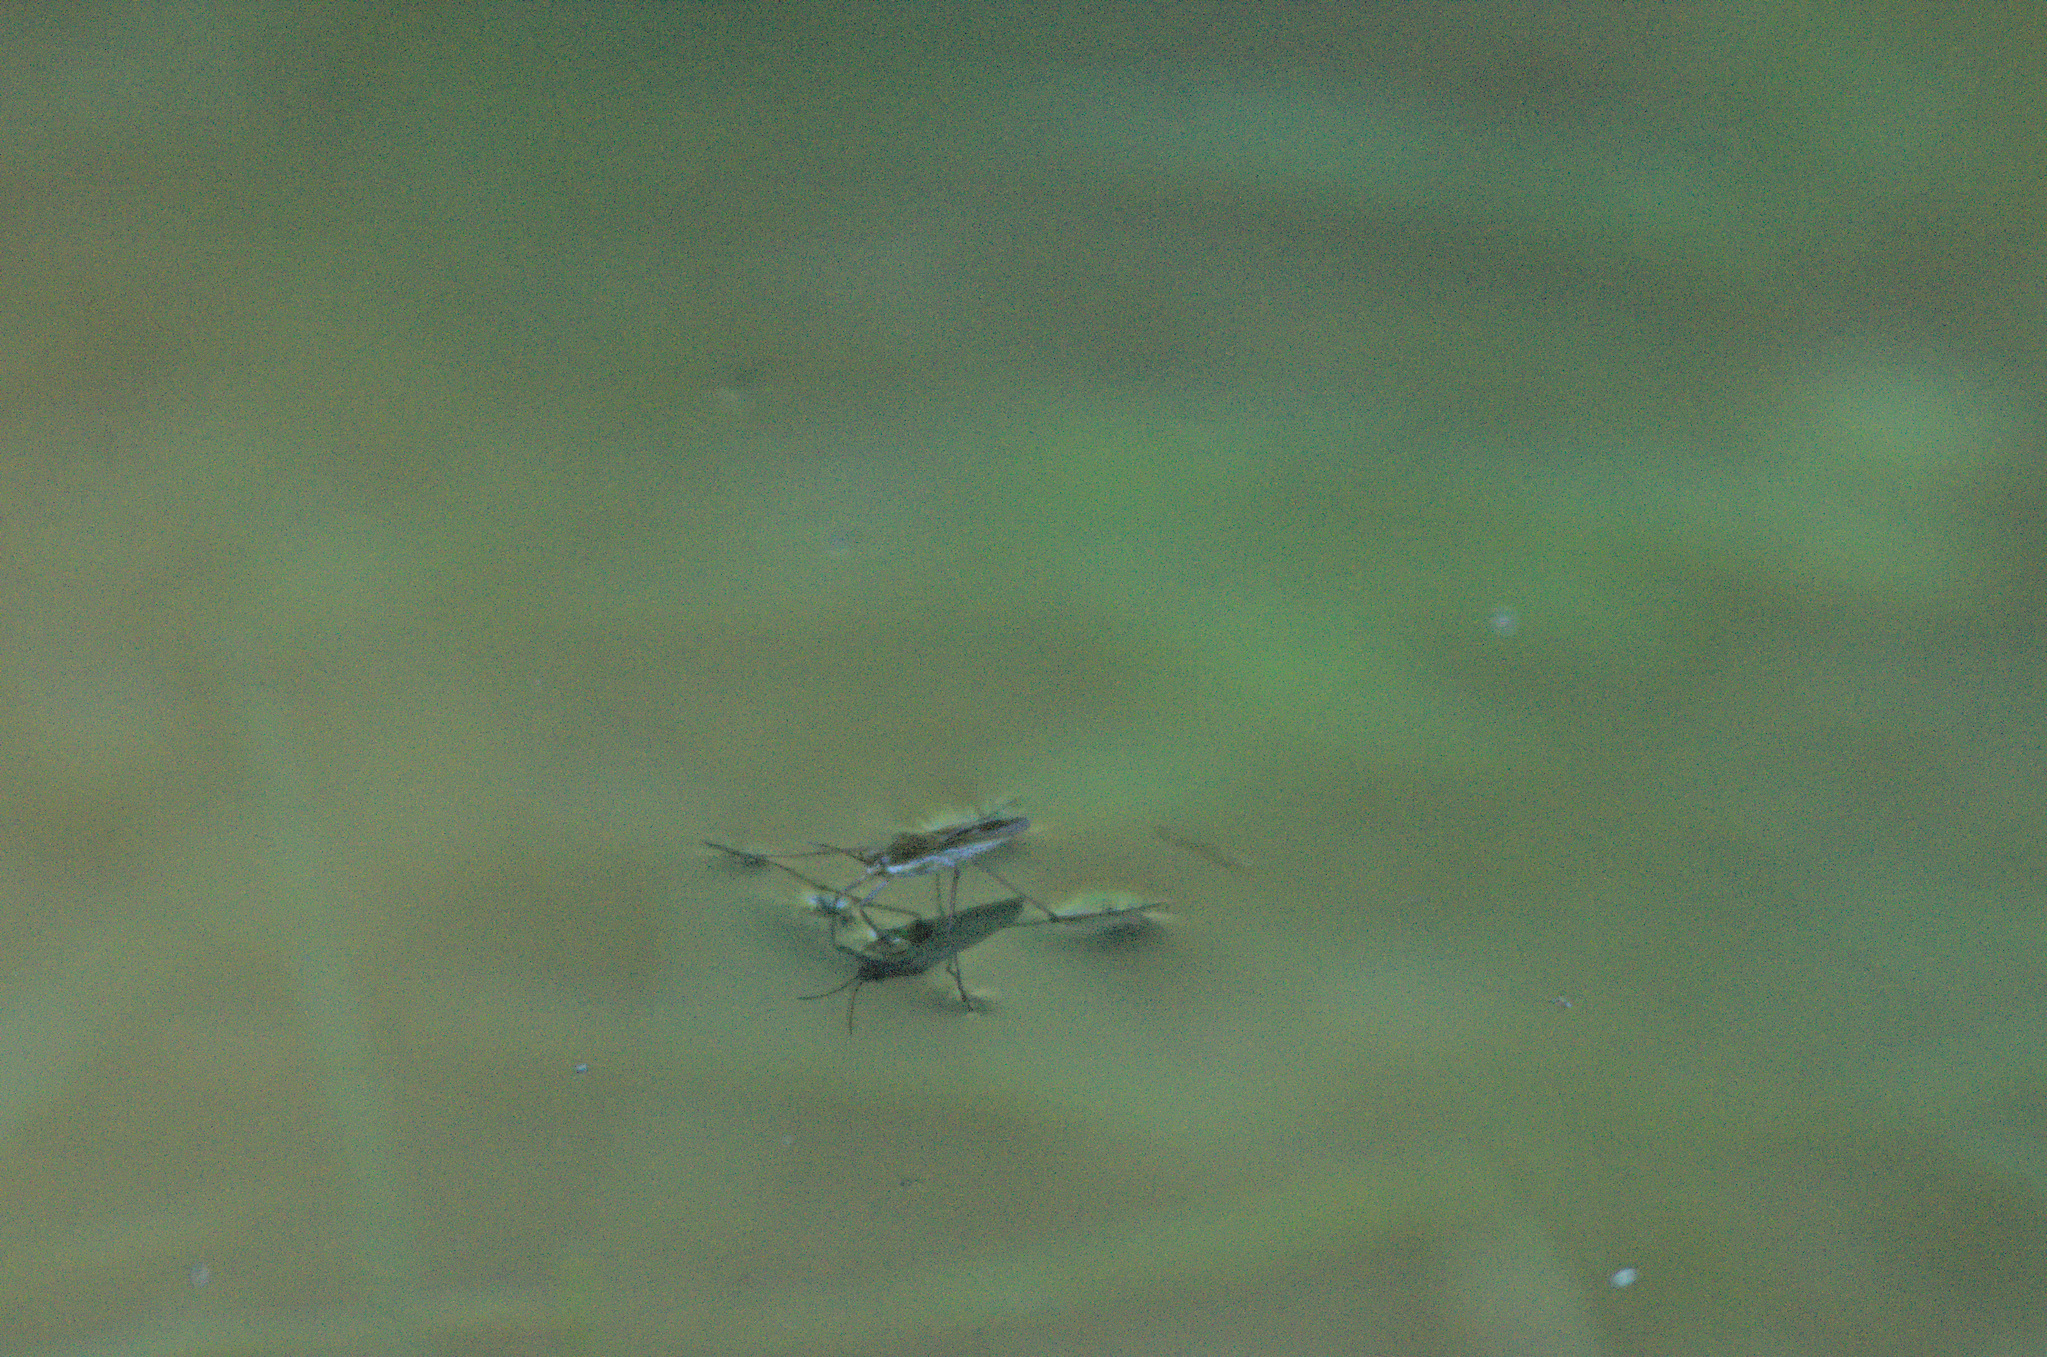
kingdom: Animalia
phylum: Arthropoda
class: Insecta
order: Hemiptera
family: Gerridae
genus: Gerris
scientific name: Gerris
